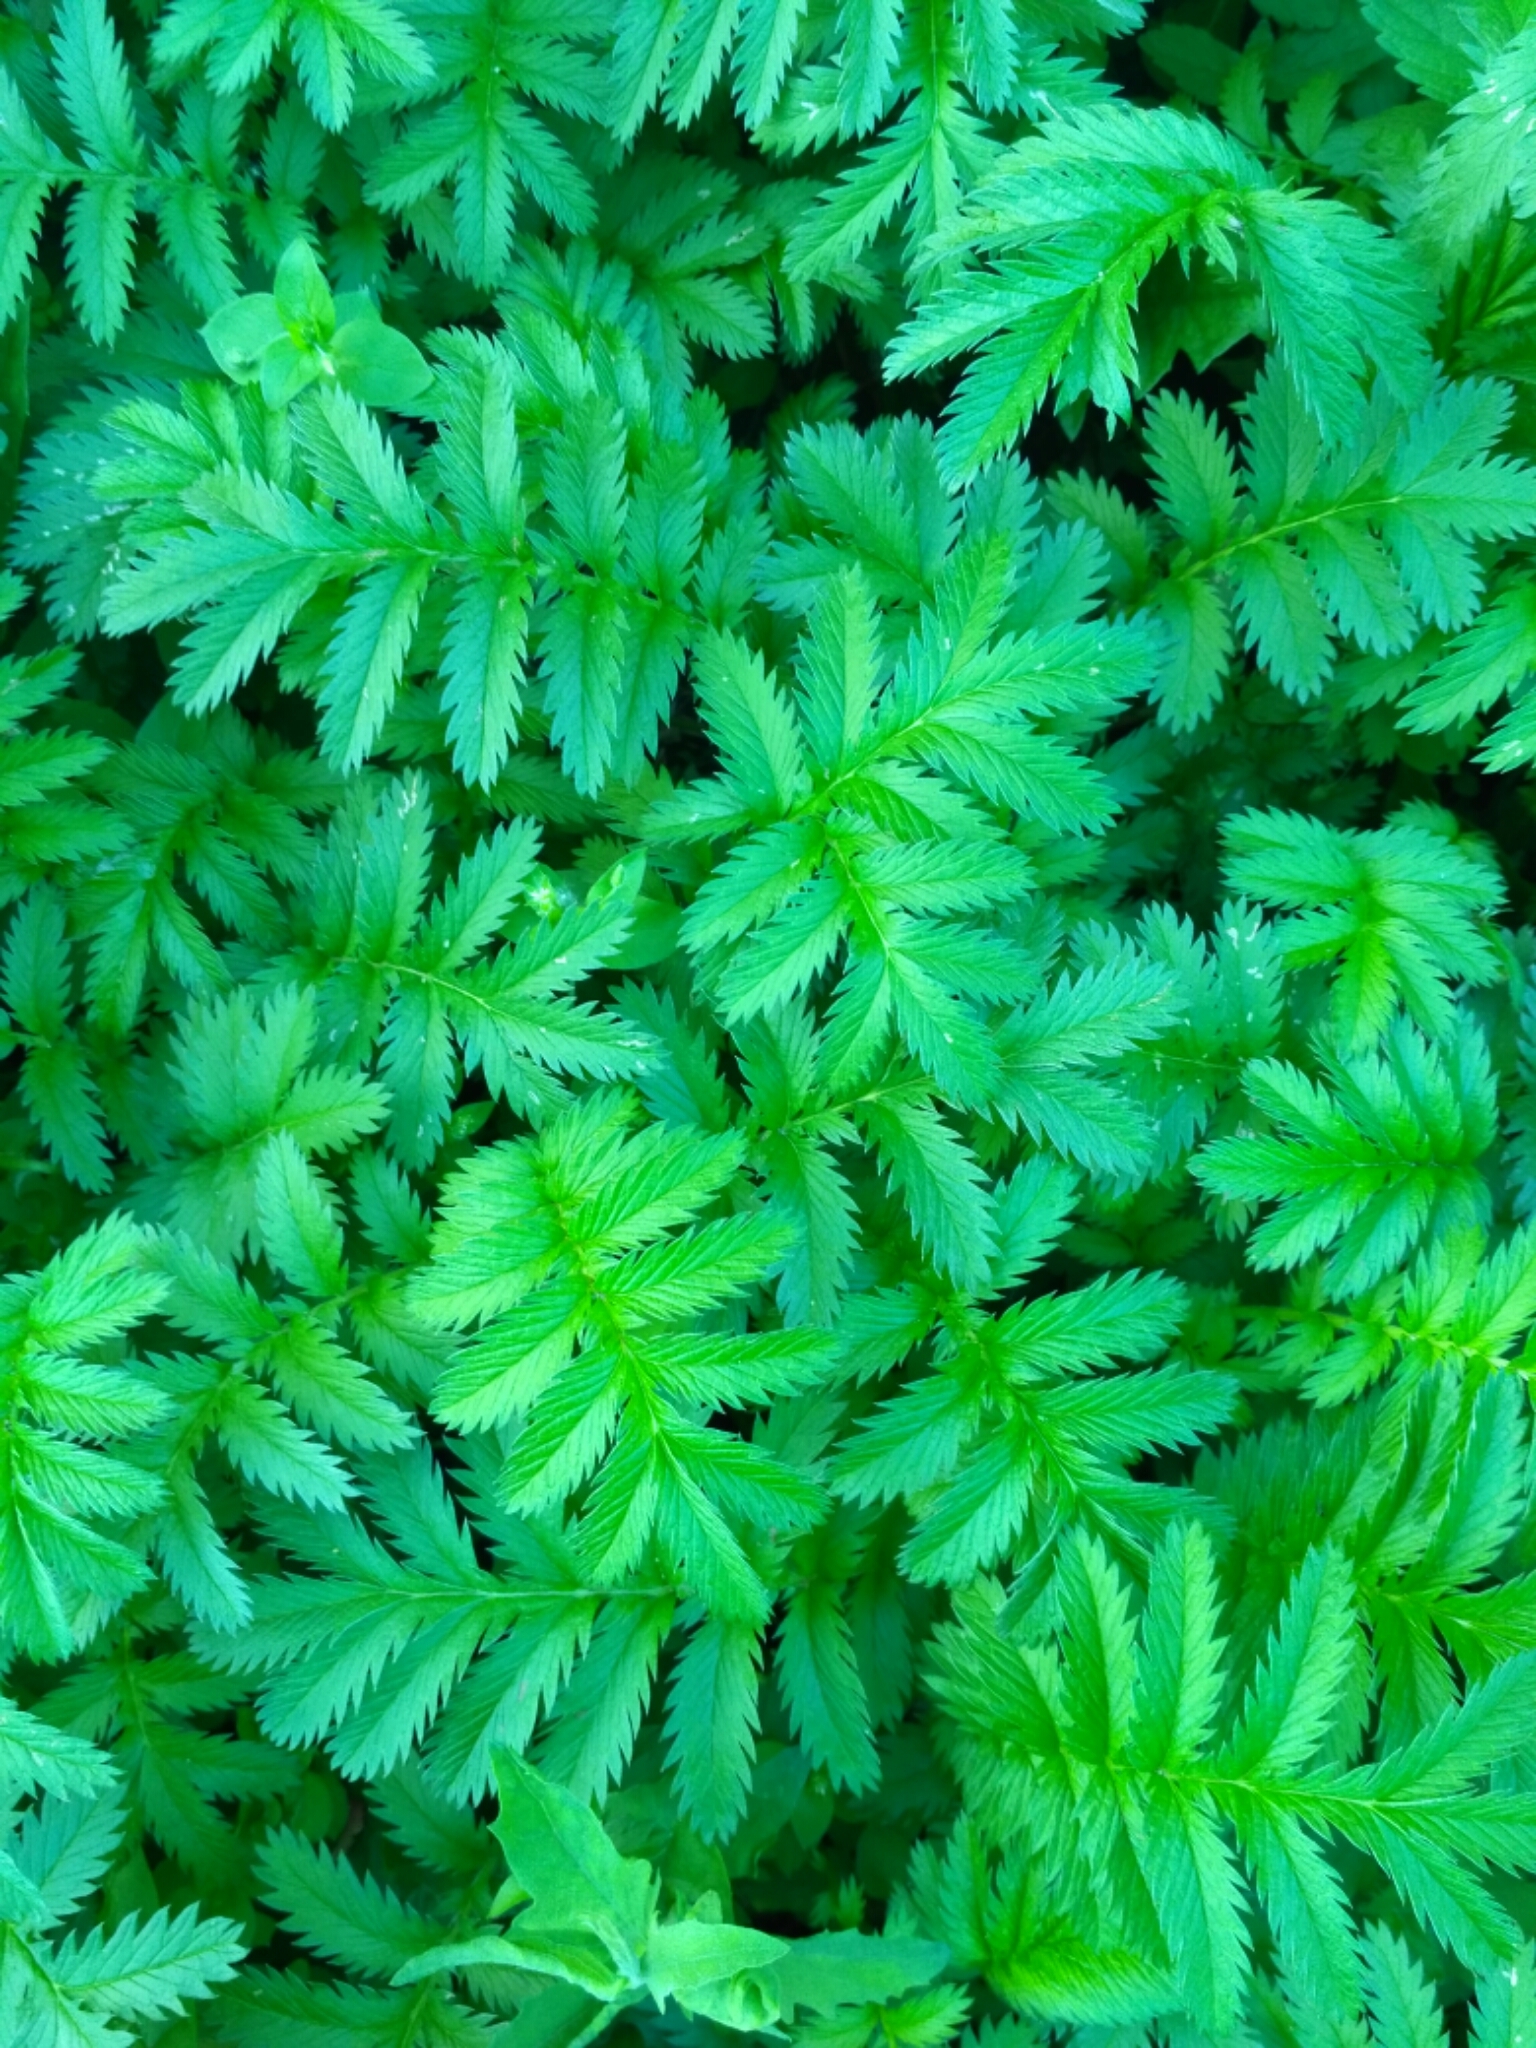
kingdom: Plantae
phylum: Tracheophyta
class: Magnoliopsida
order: Rosales
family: Rosaceae
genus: Argentina
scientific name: Argentina anserina
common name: Common silverweed
